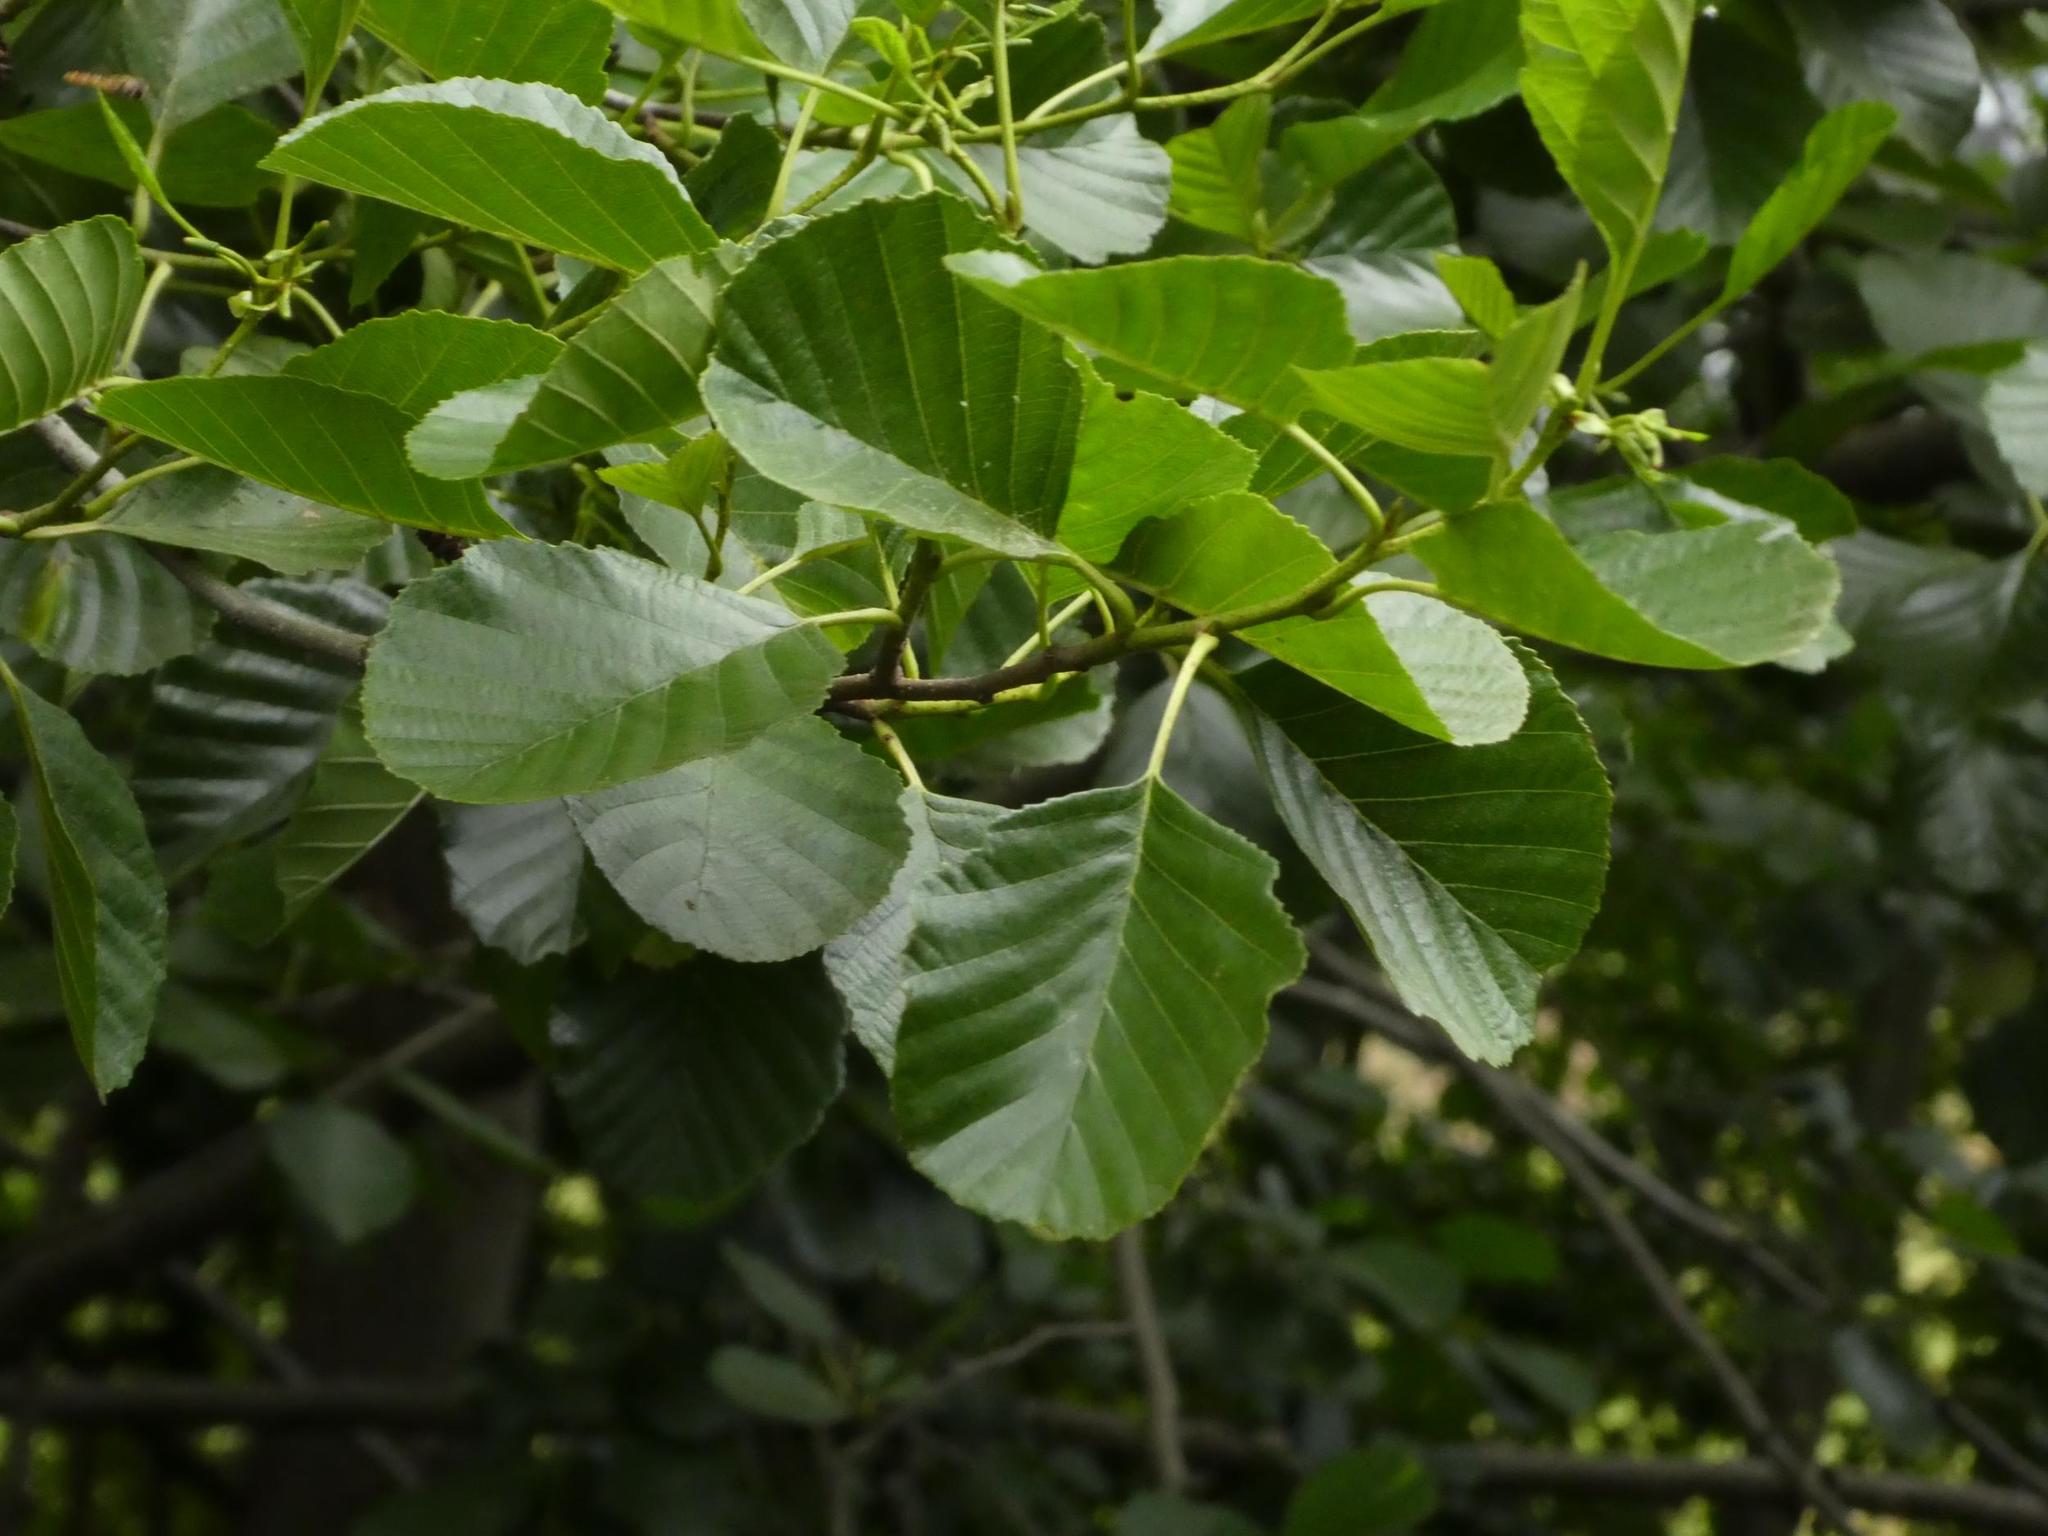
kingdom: Plantae
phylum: Tracheophyta
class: Magnoliopsida
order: Fagales
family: Betulaceae
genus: Alnus
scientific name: Alnus glutinosa
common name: Black alder
